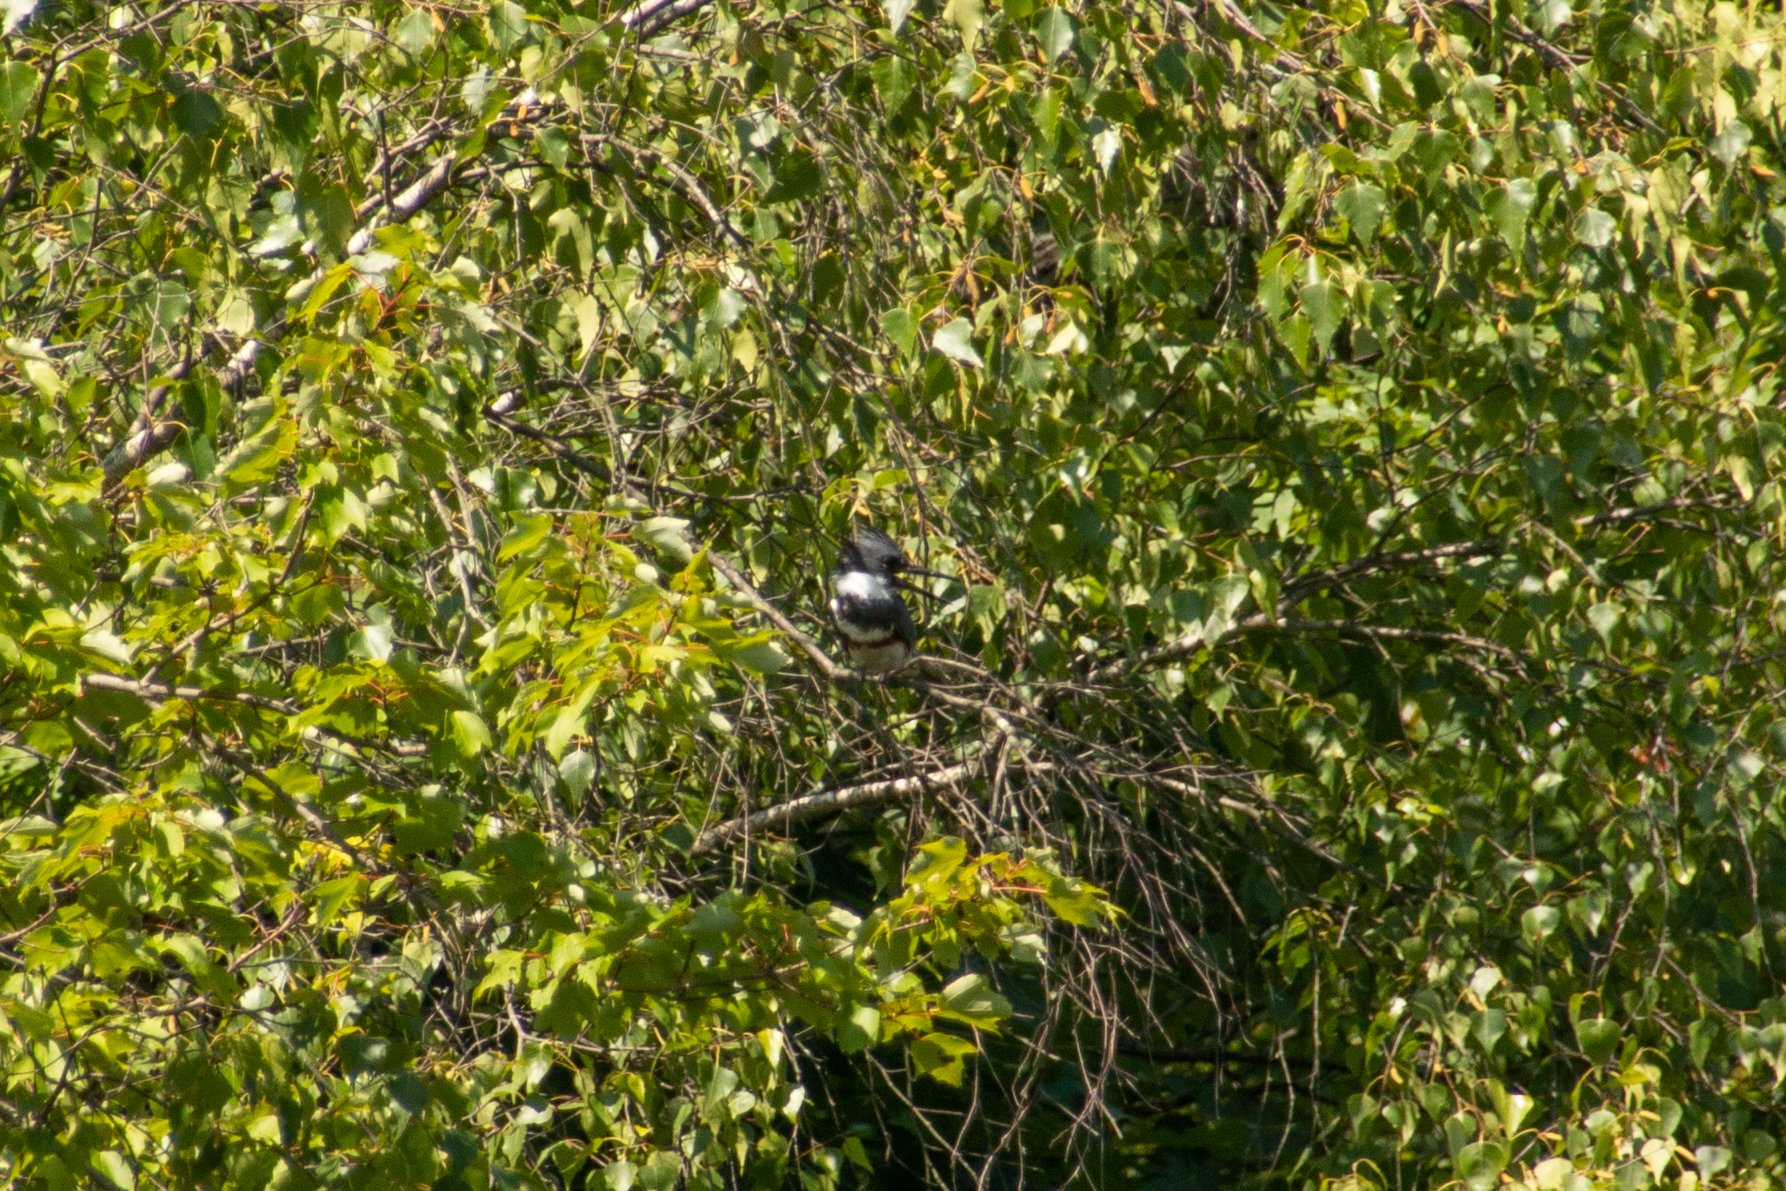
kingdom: Animalia
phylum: Chordata
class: Aves
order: Coraciiformes
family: Alcedinidae
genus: Megaceryle
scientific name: Megaceryle alcyon
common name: Belted kingfisher
